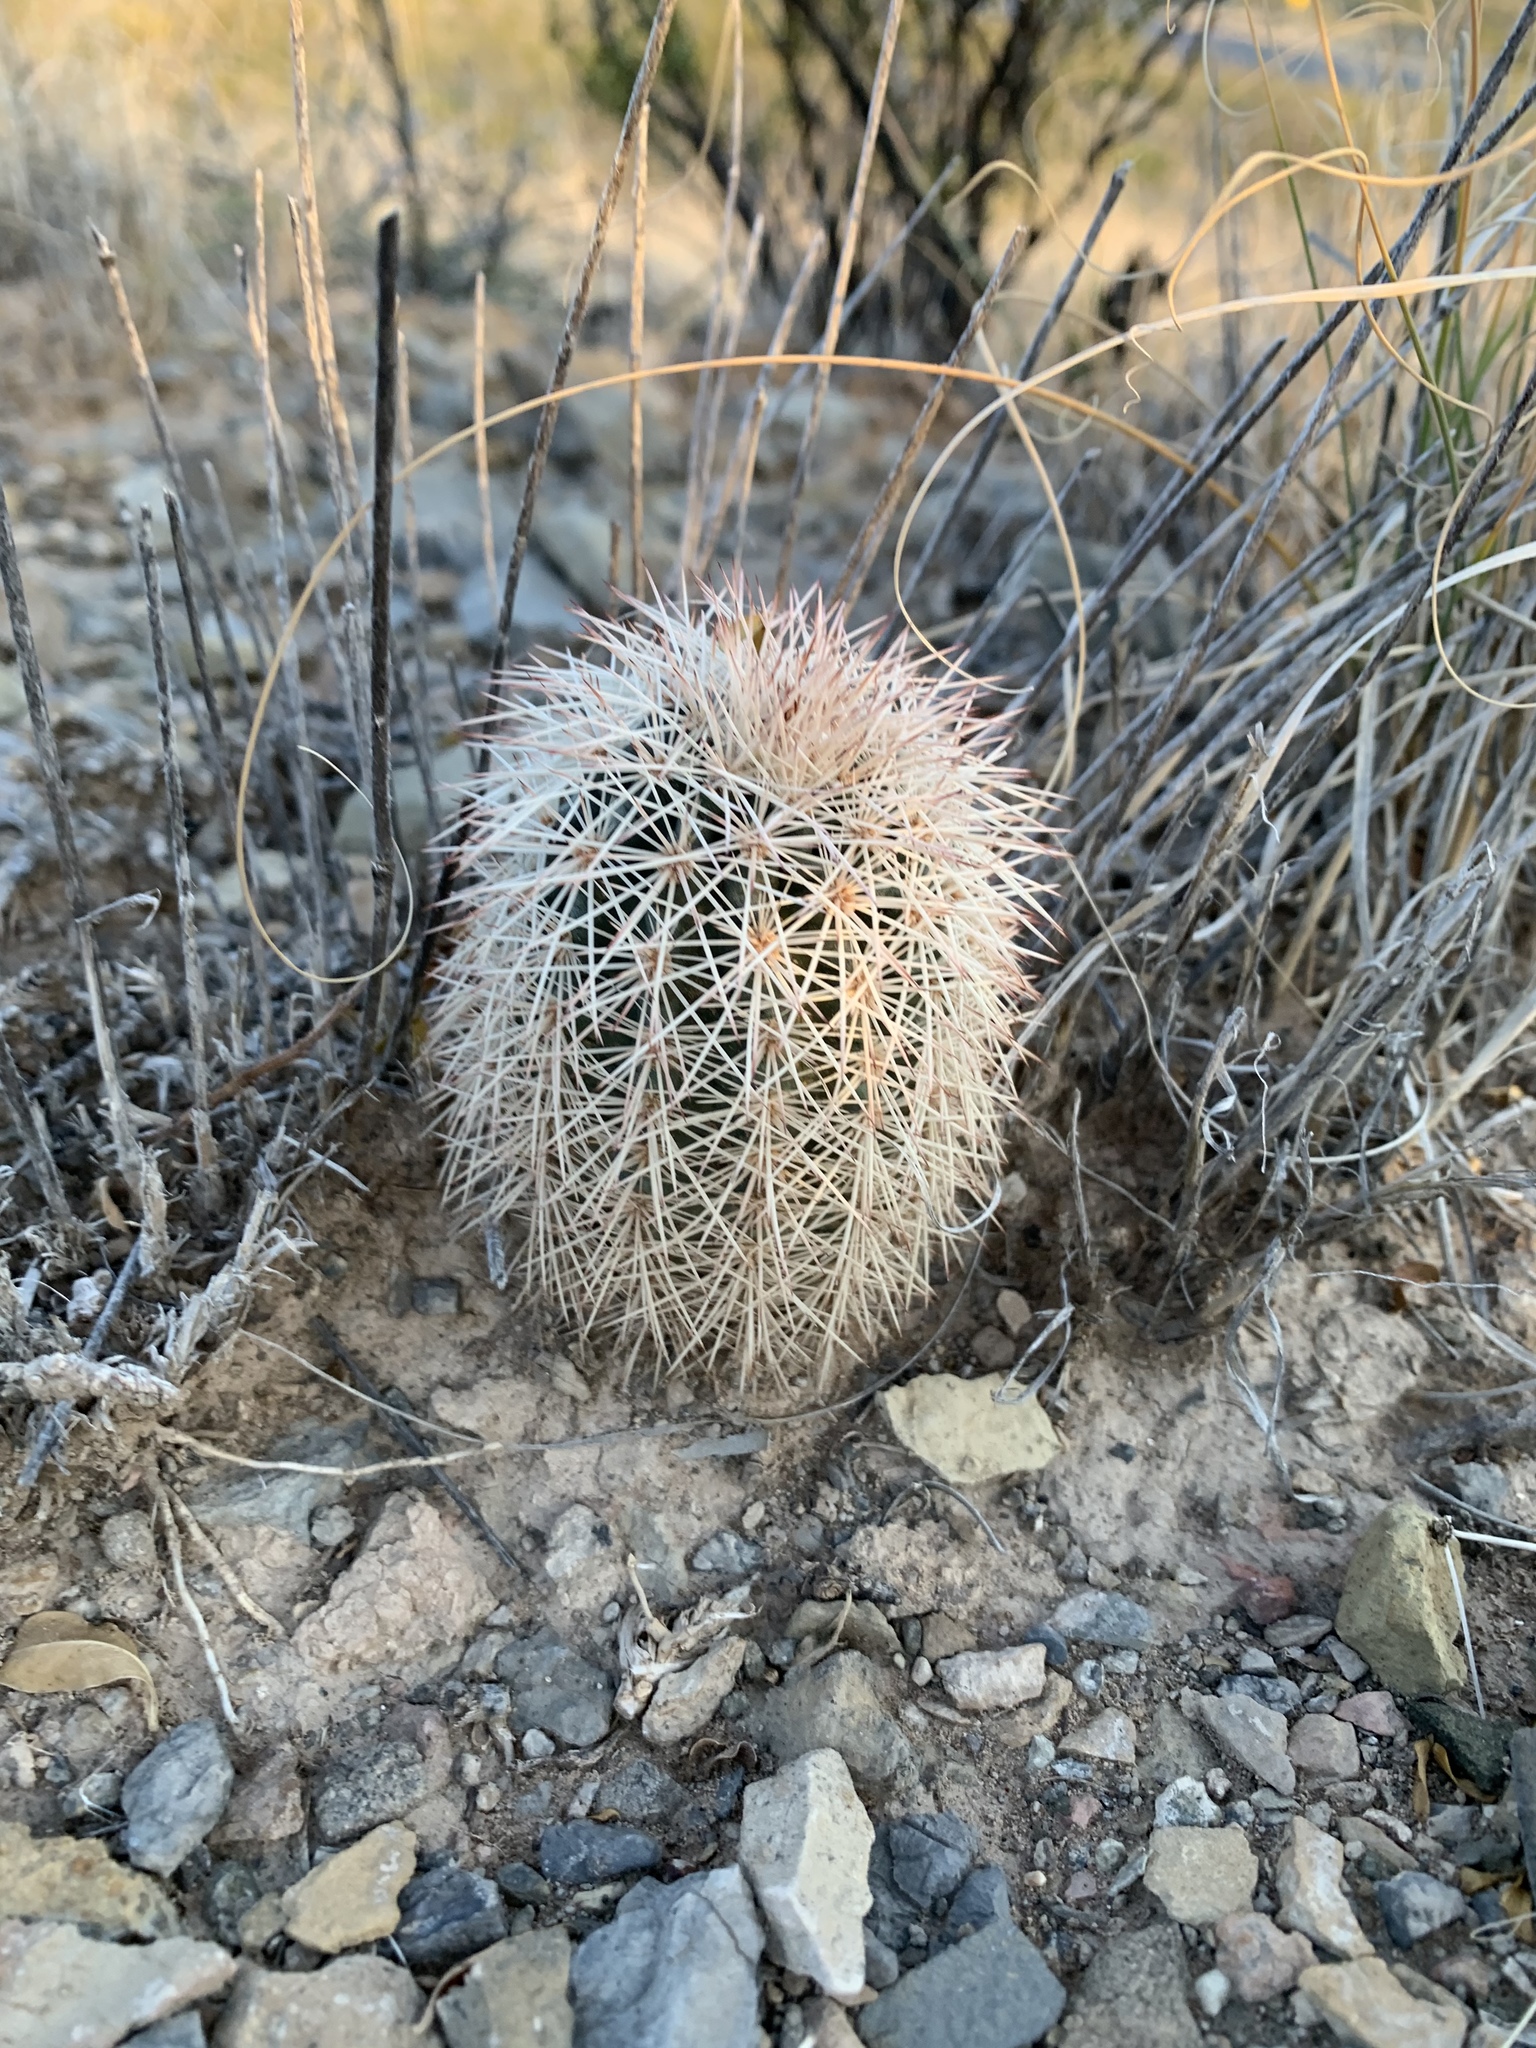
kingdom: Plantae
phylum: Tracheophyta
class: Magnoliopsida
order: Caryophyllales
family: Cactaceae
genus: Echinocereus
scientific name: Echinocereus dasyacanthus
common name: Spiny hedgehog cactus
